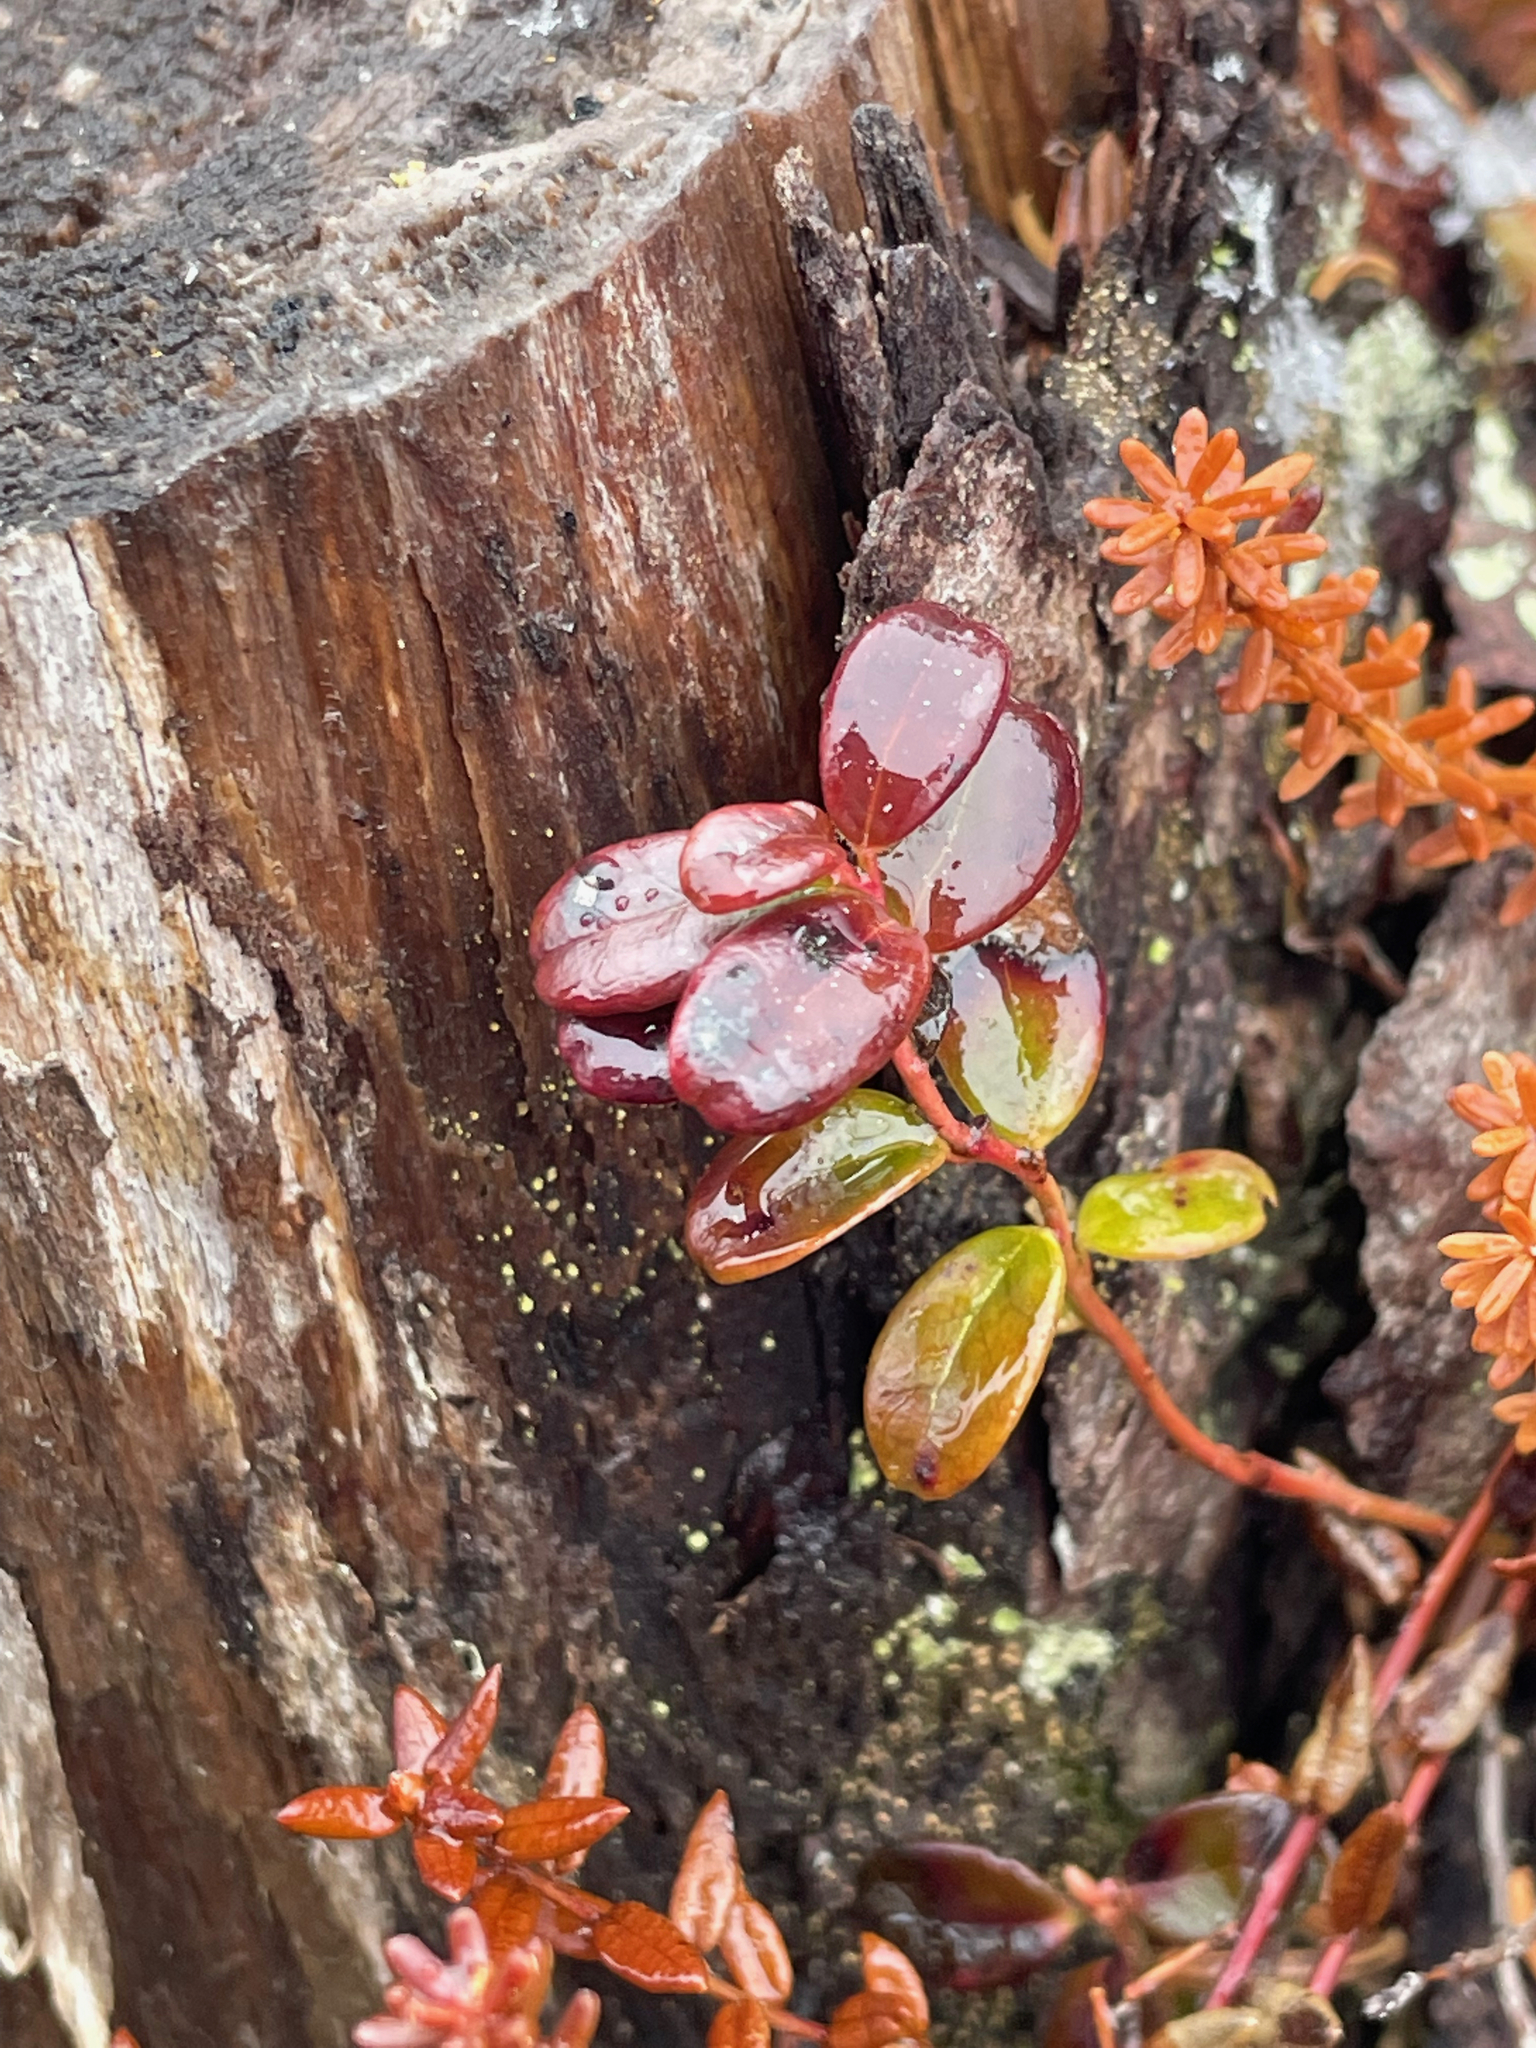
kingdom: Plantae
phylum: Tracheophyta
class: Magnoliopsida
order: Ericales
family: Ericaceae
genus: Vaccinium
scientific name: Vaccinium vitis-idaea
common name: Cowberry
